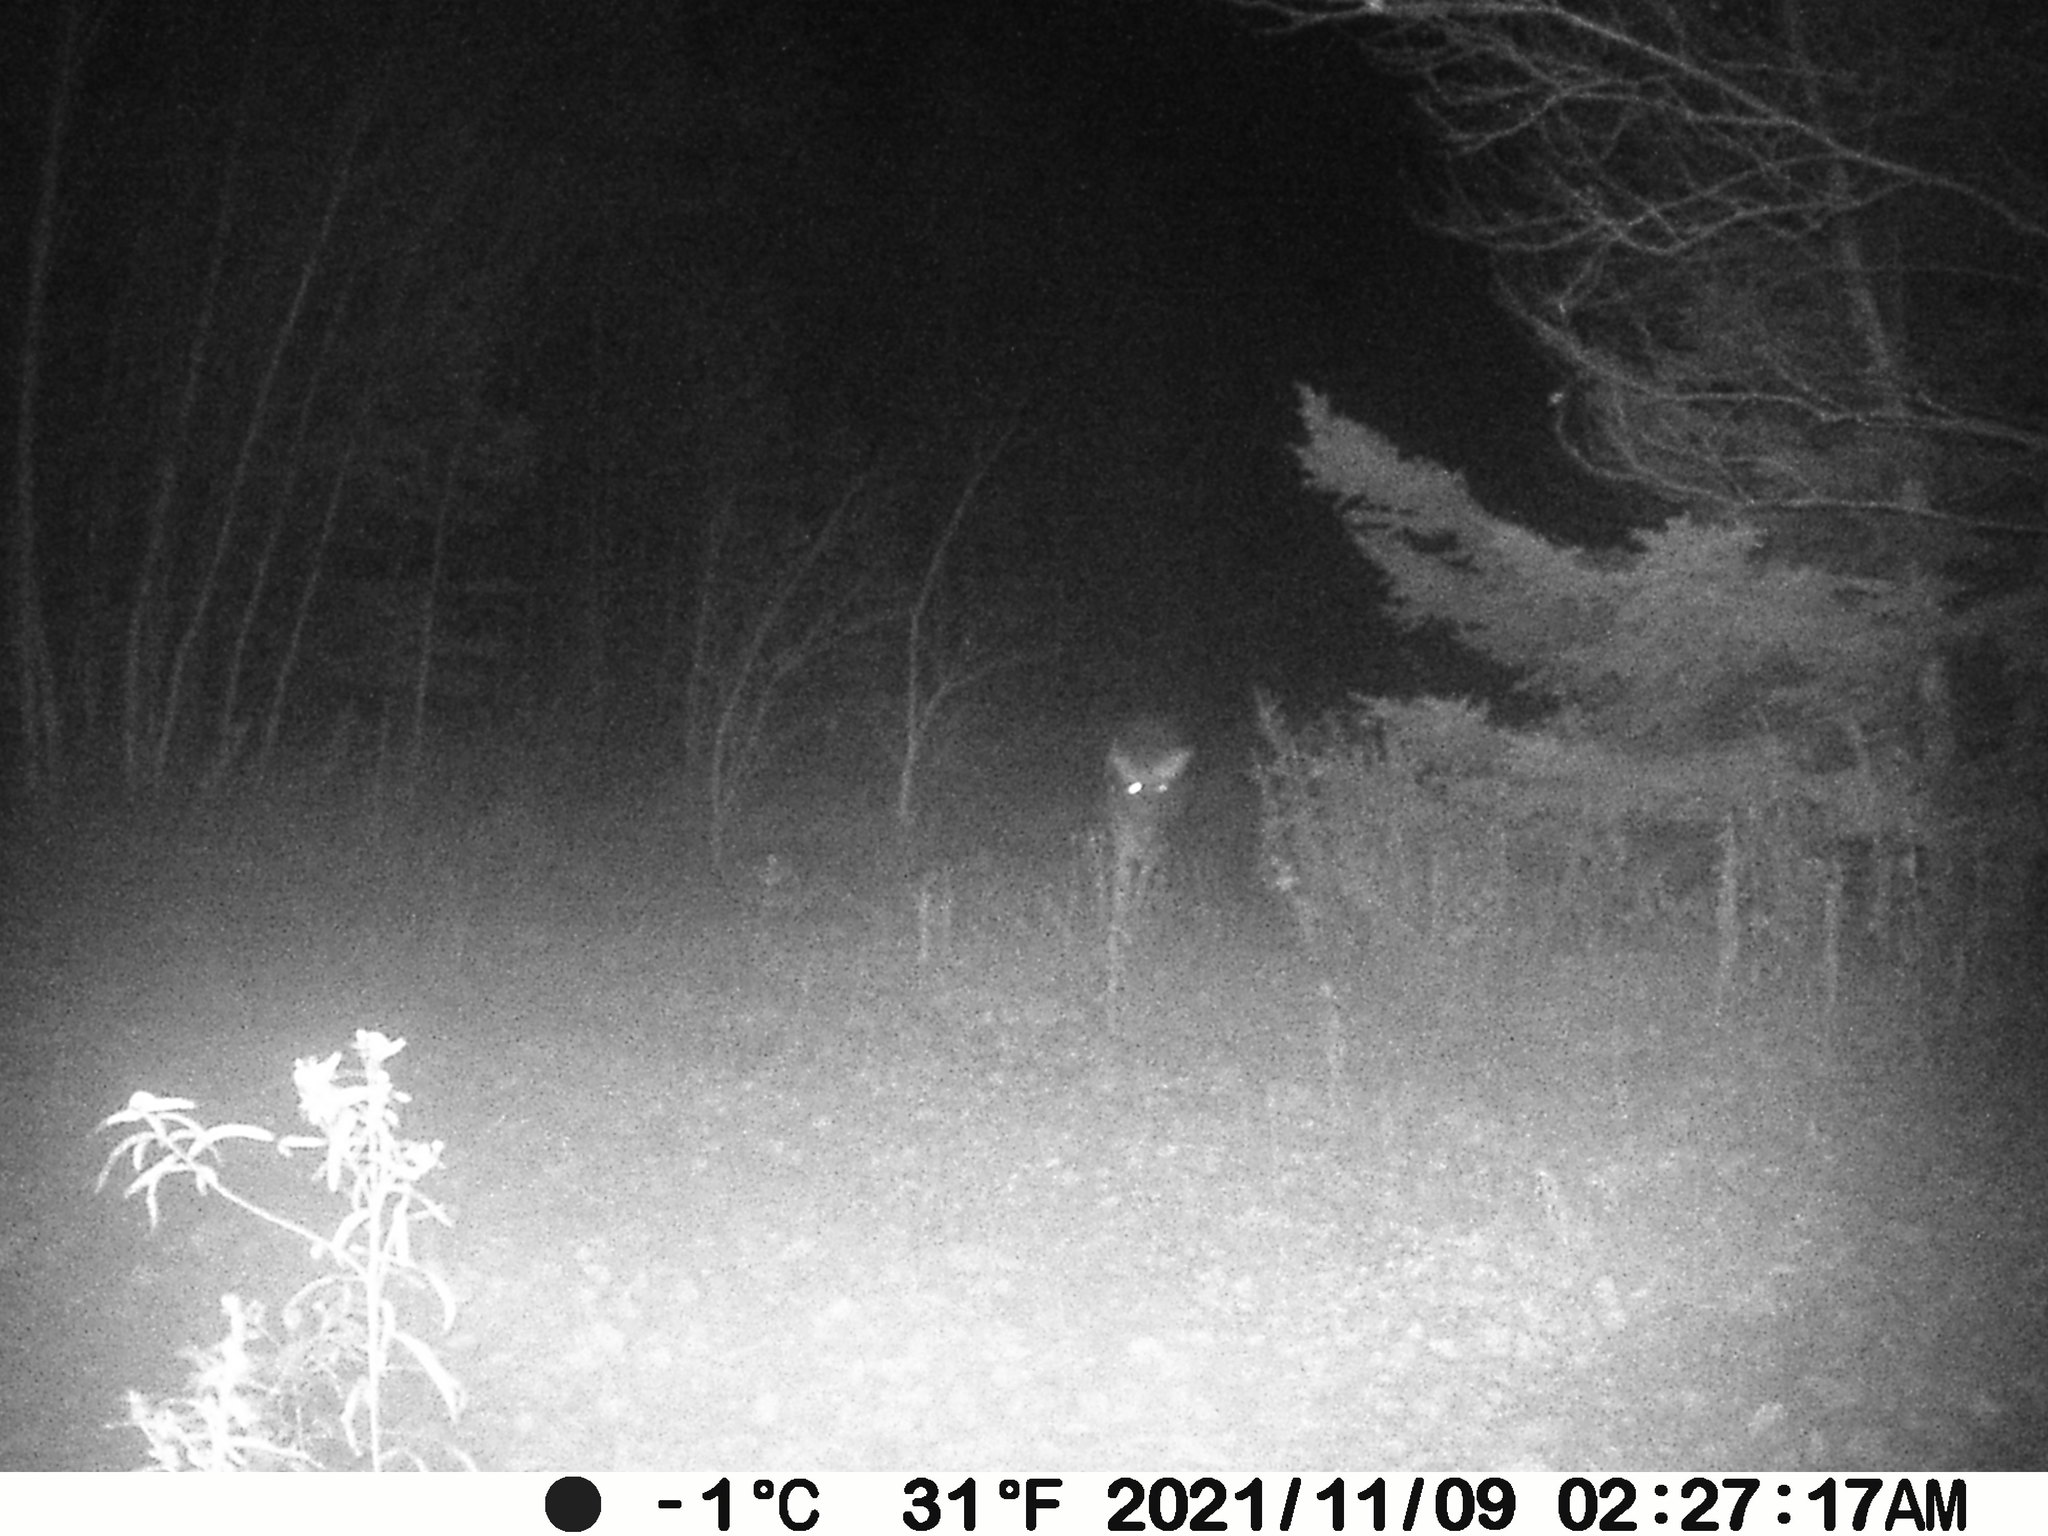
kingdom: Animalia
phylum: Chordata
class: Mammalia
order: Artiodactyla
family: Cervidae
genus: Odocoileus
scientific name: Odocoileus virginianus
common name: White-tailed deer
